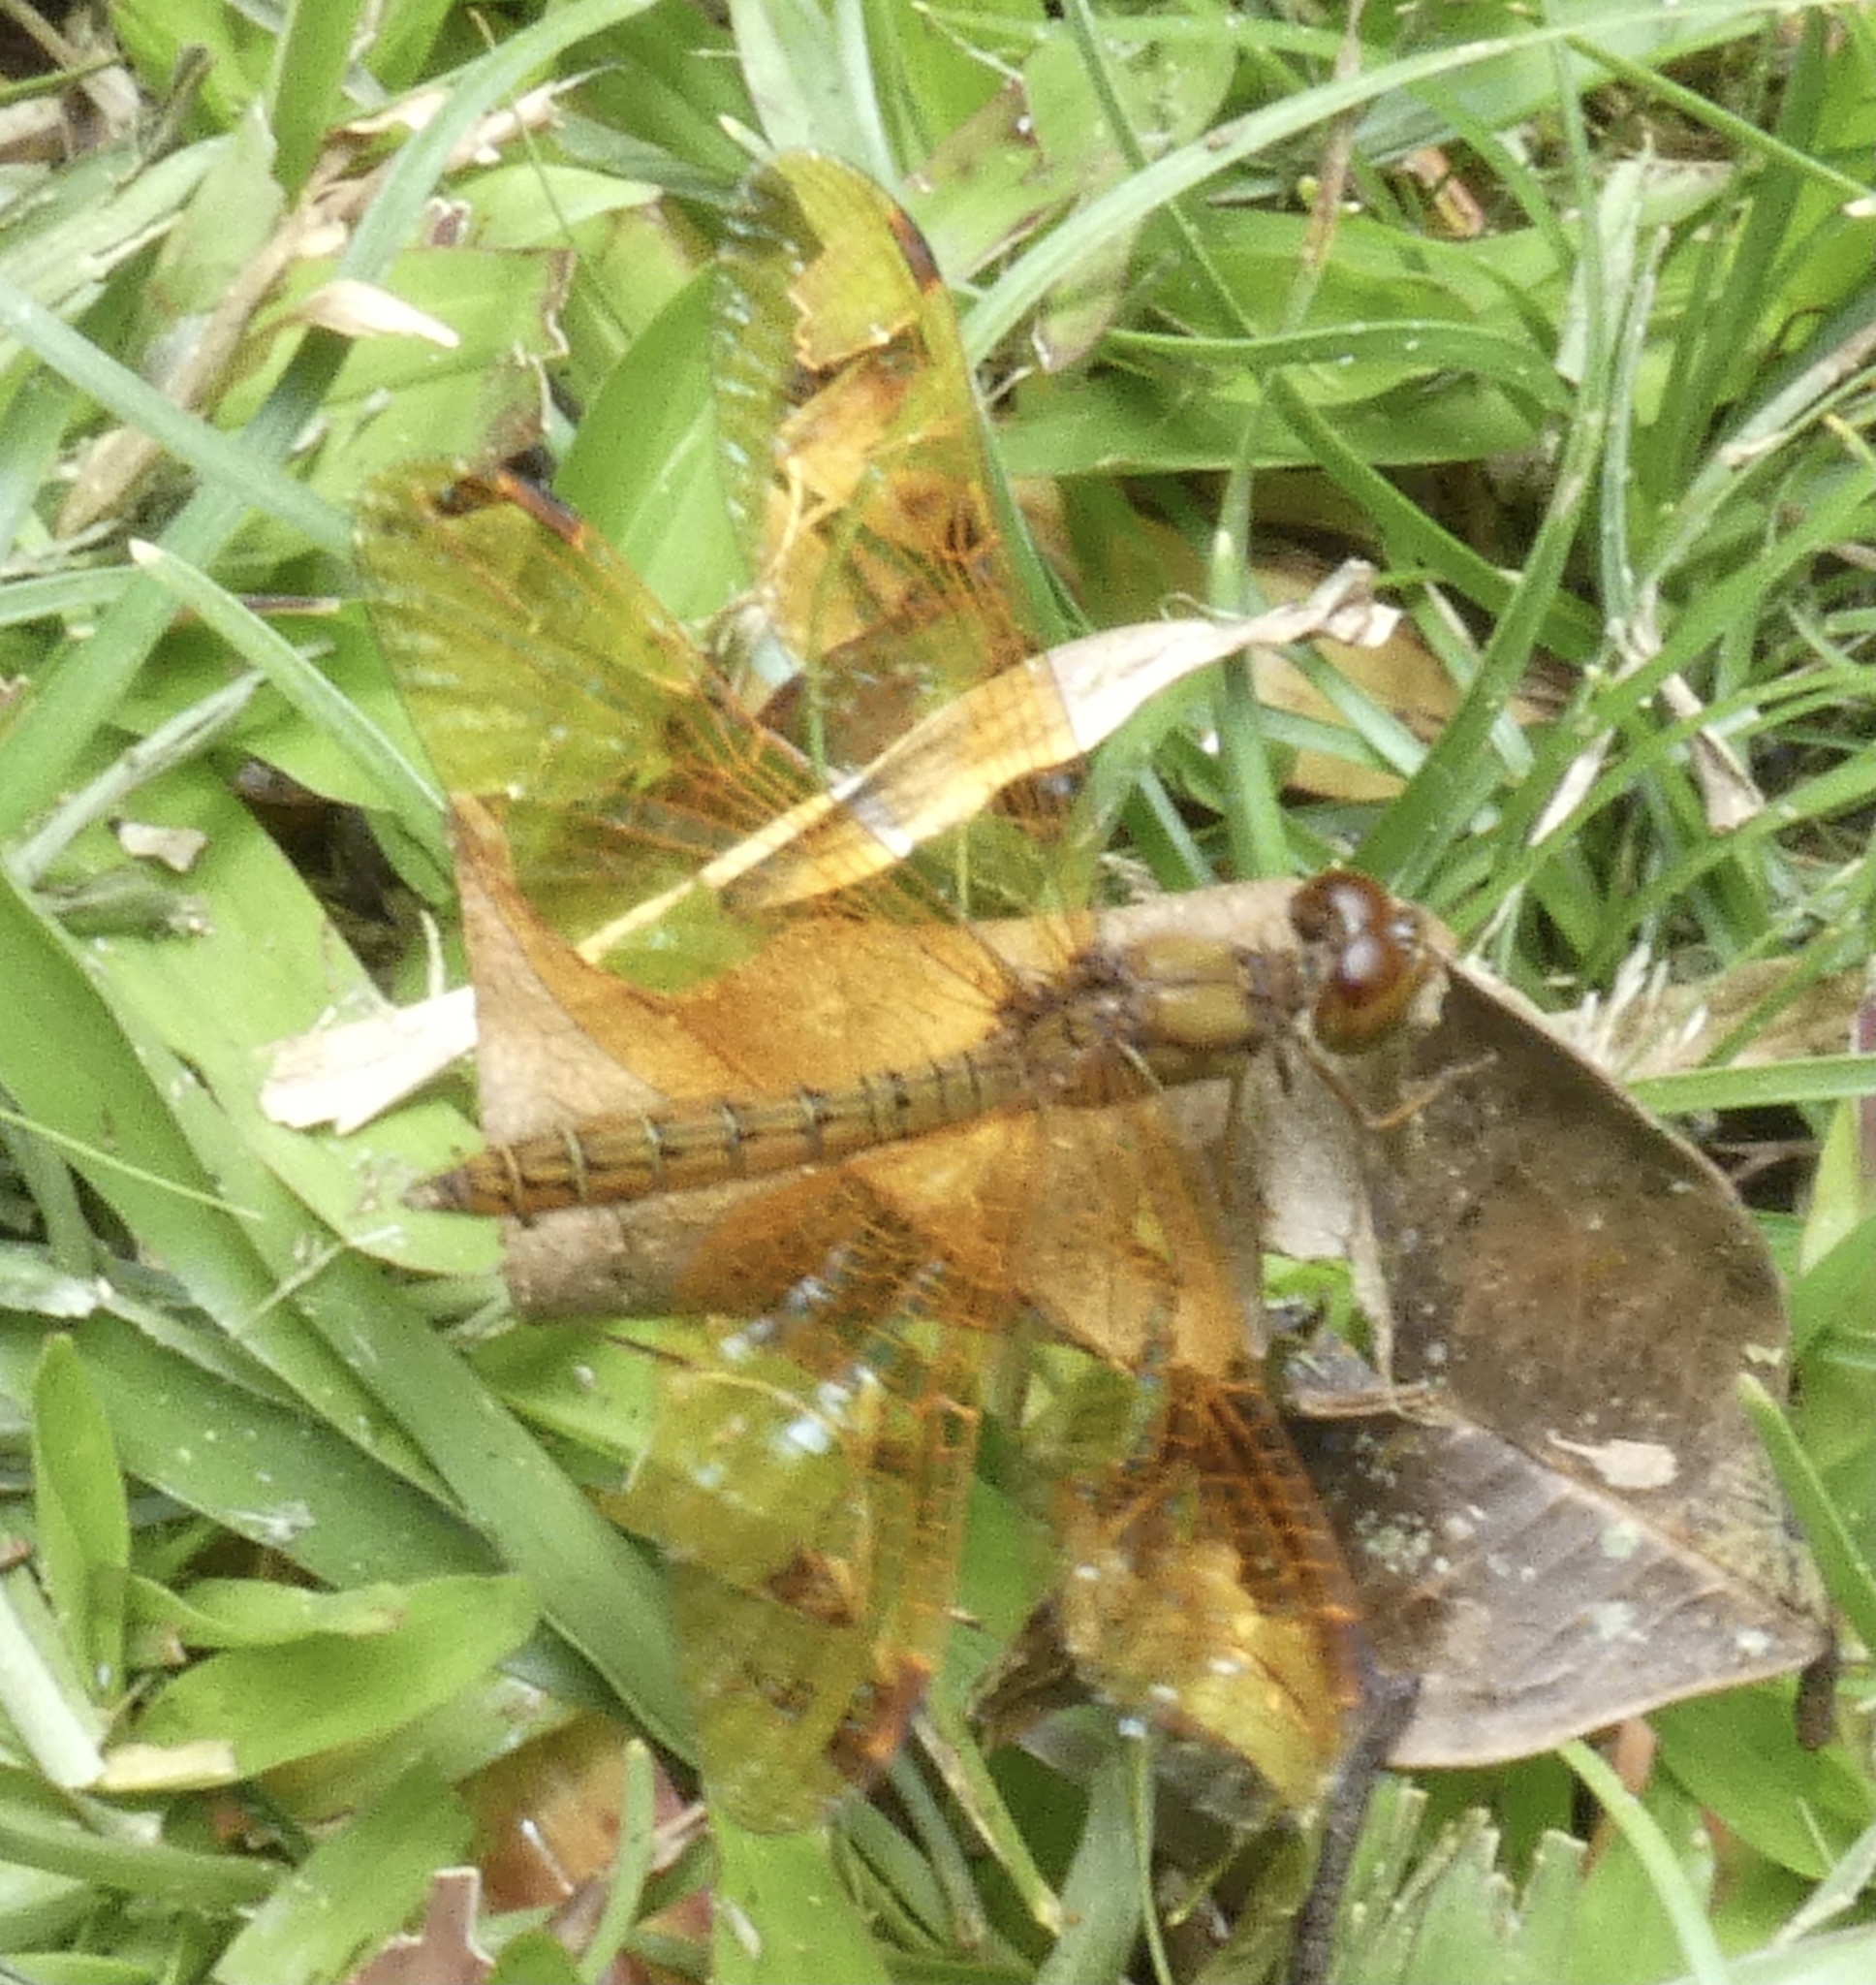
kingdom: Animalia
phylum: Arthropoda
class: Insecta
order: Odonata
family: Libellulidae
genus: Perithemis
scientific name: Perithemis icteroptera
